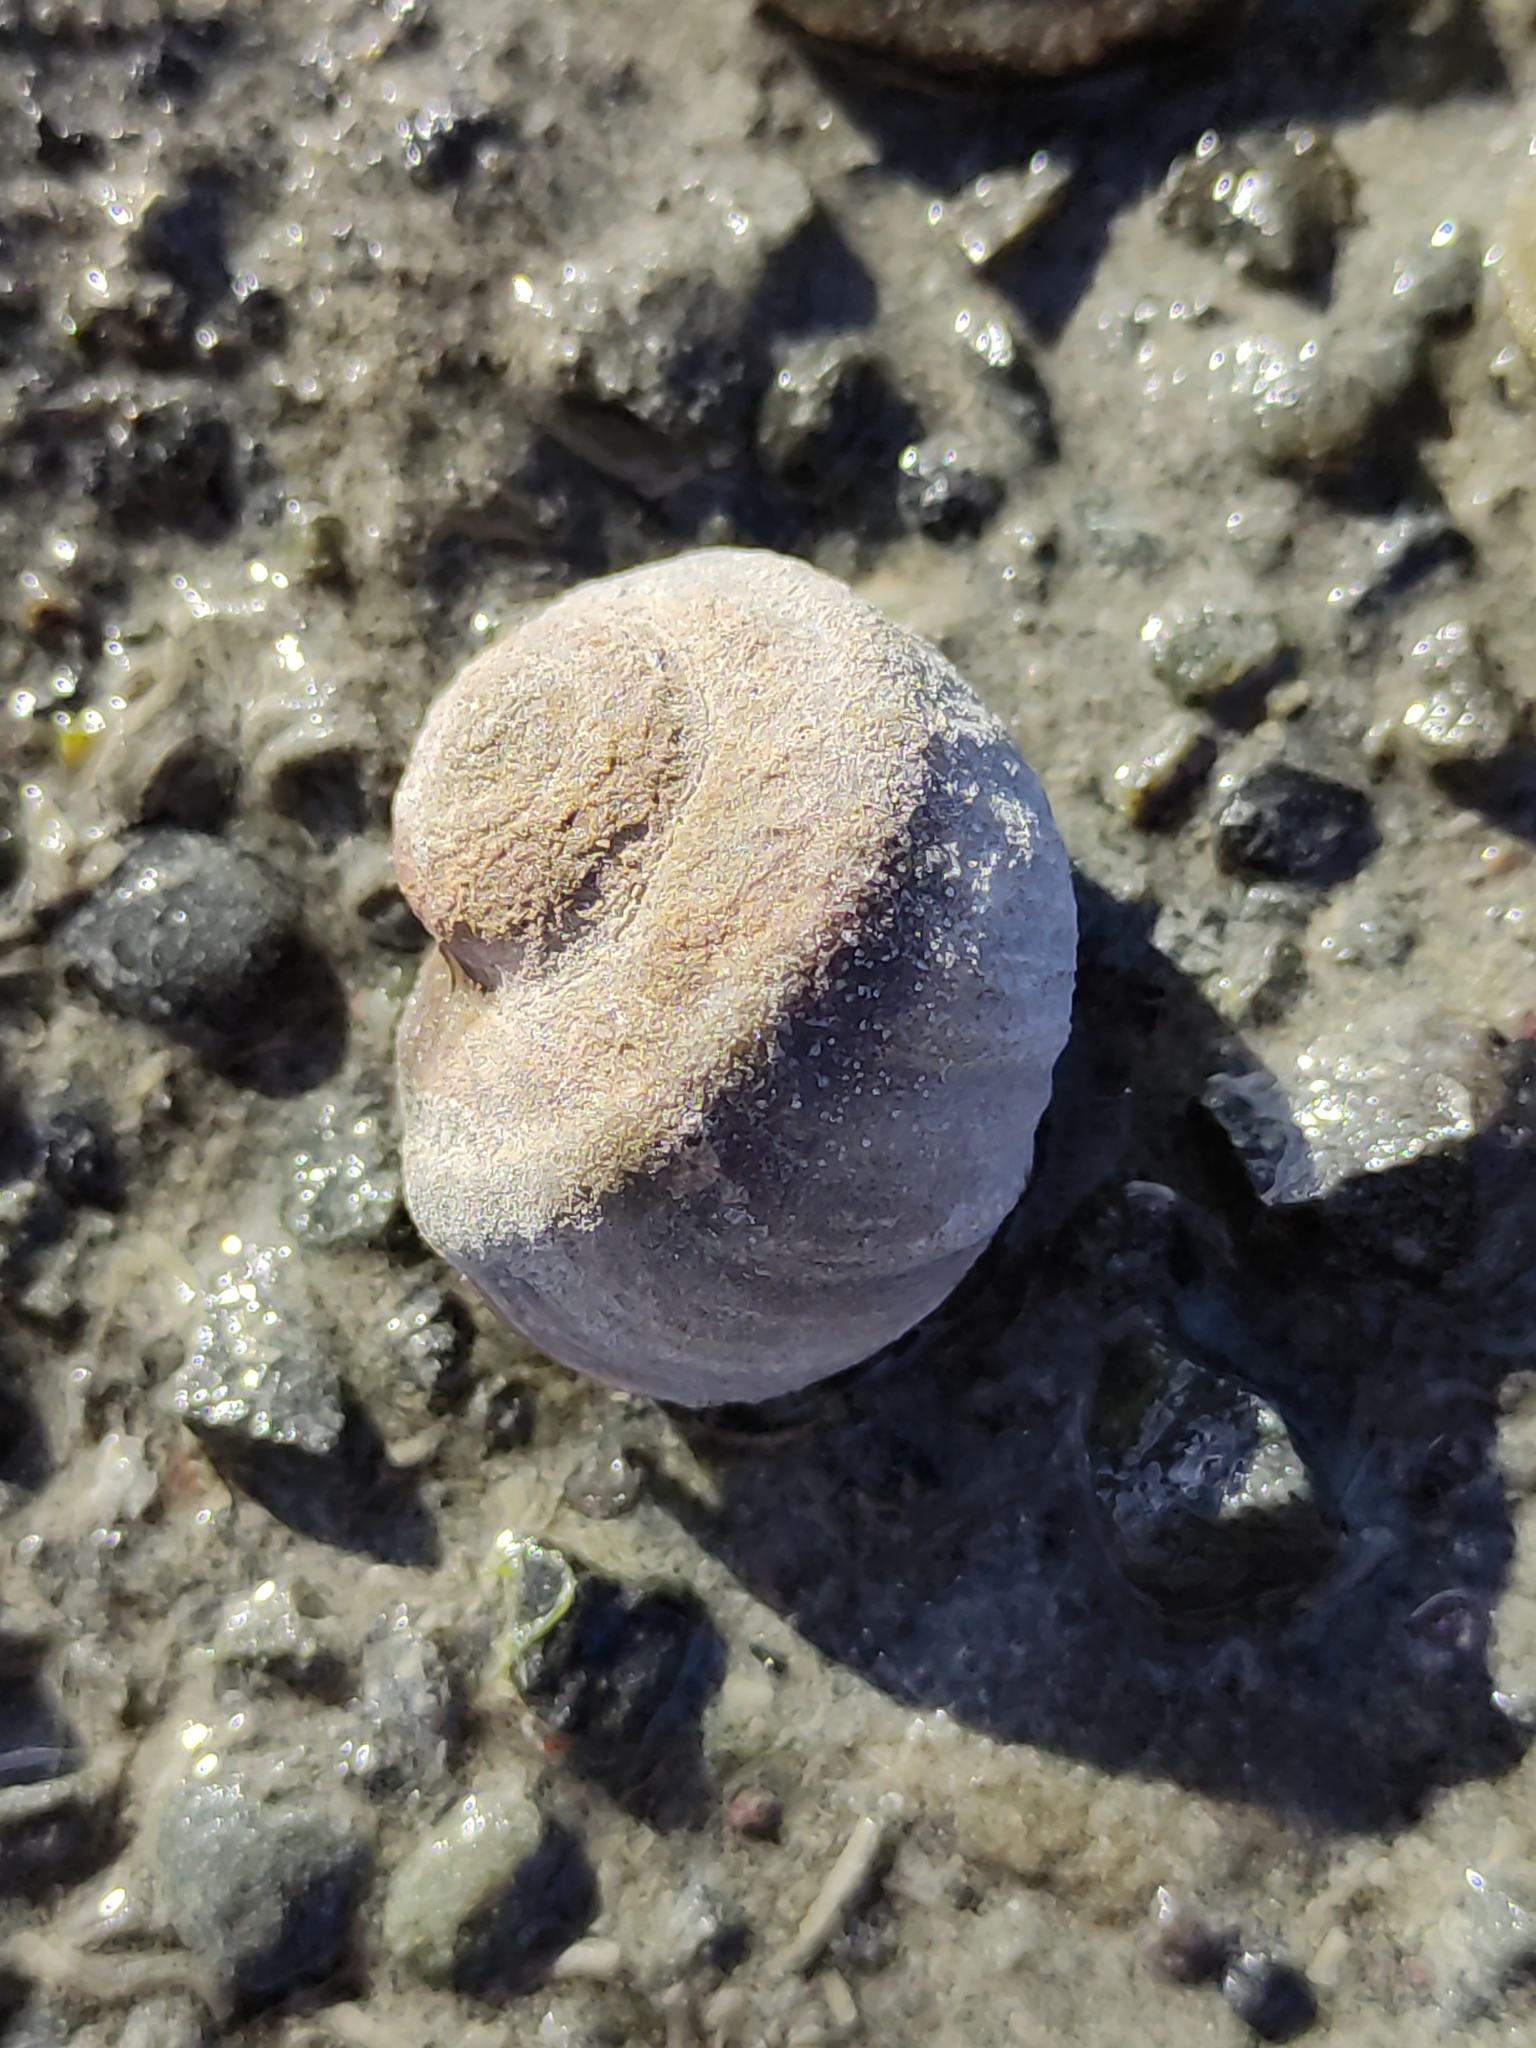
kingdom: Animalia
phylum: Mollusca
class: Gastropoda
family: Amphibolidae
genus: Amphibola
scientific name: Amphibola crenata
